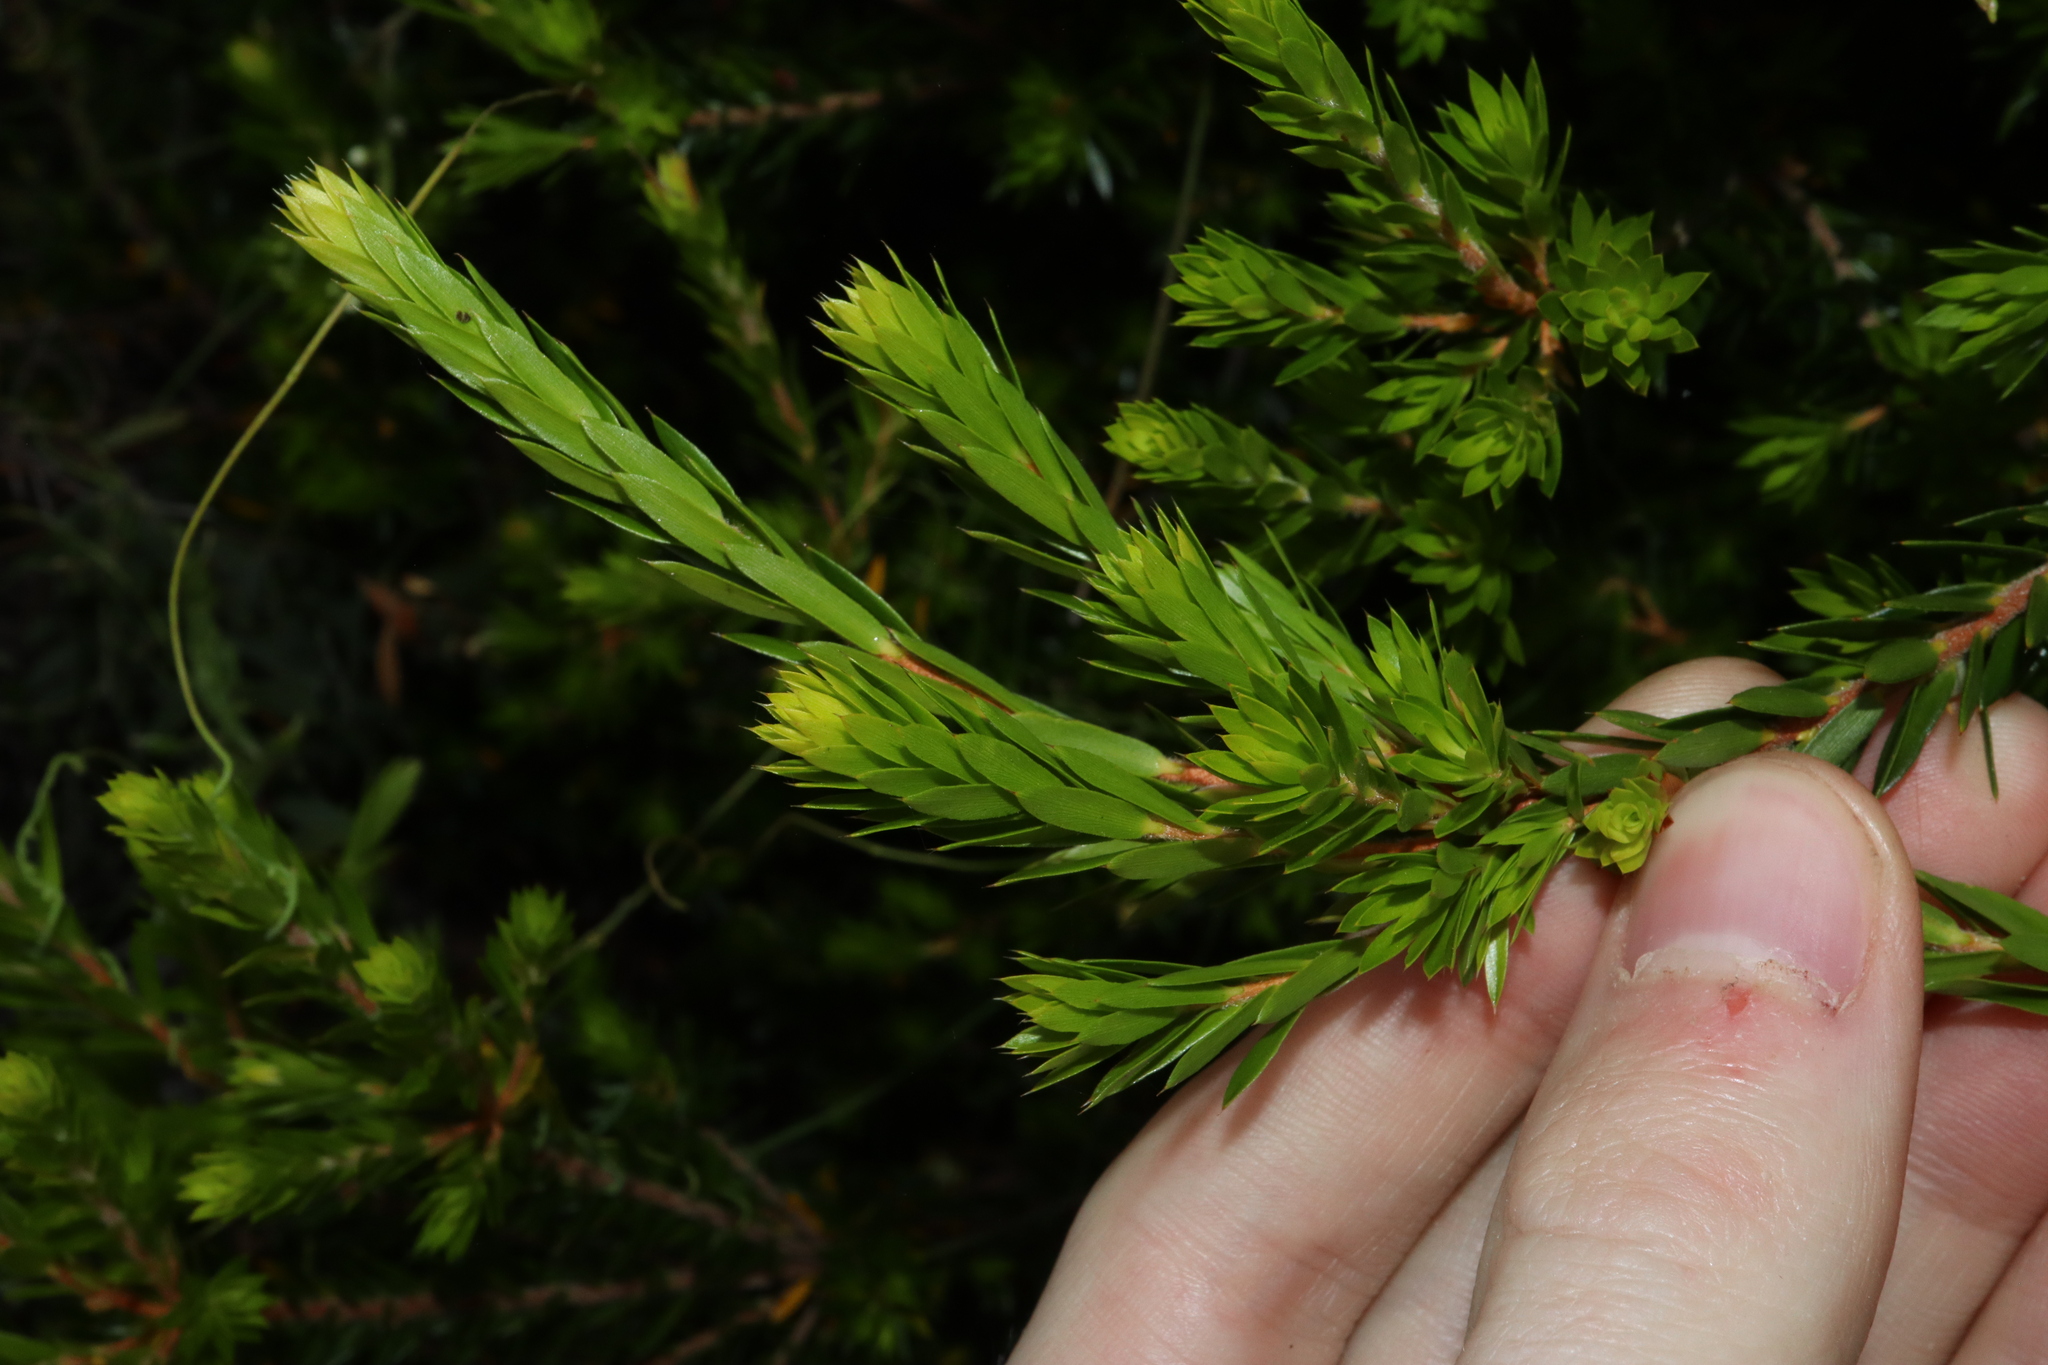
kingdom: Plantae
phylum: Tracheophyta
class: Magnoliopsida
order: Ericales
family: Ericaceae
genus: Styphelia
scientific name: Styphelia tecta
